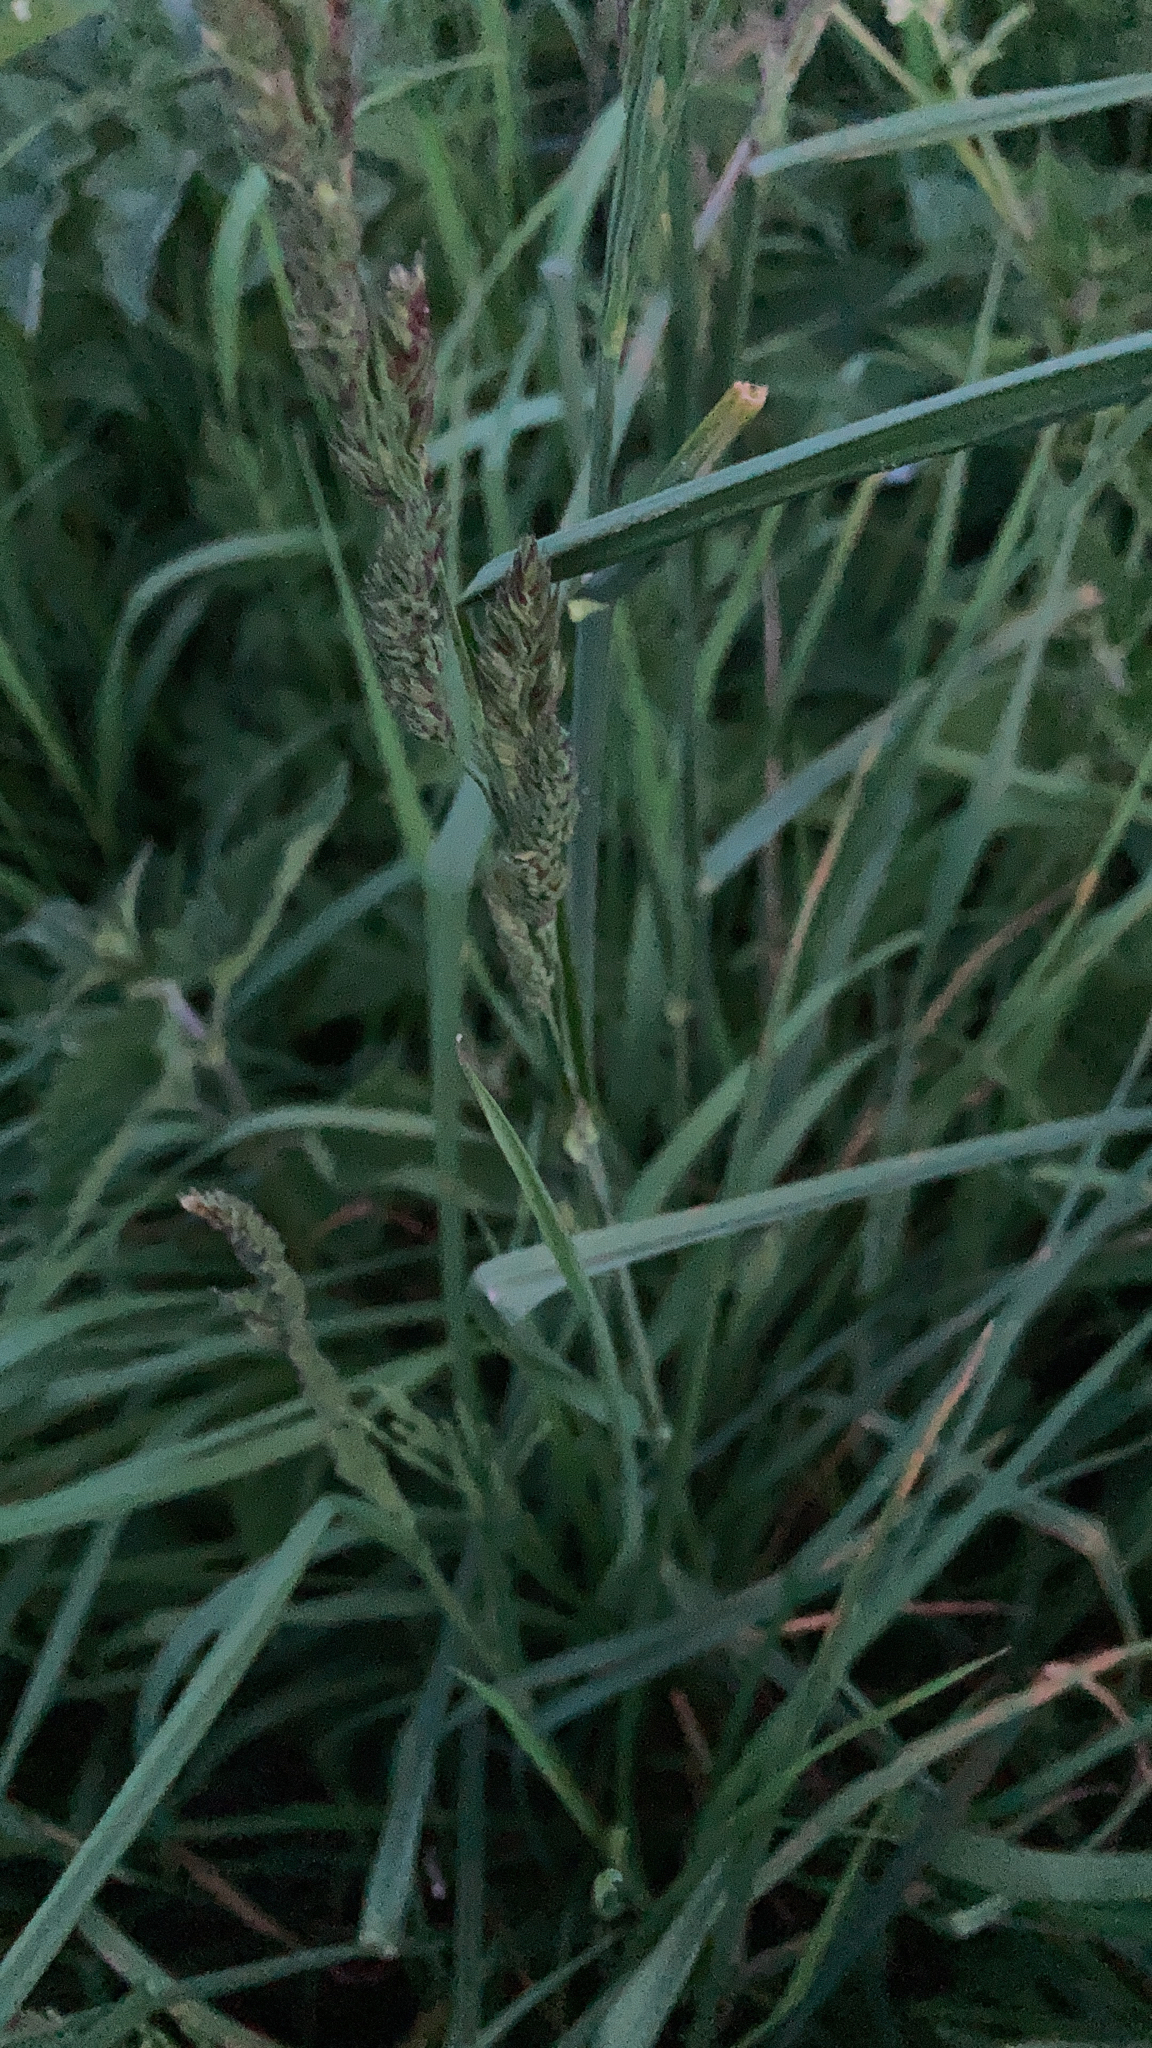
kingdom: Plantae
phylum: Tracheophyta
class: Liliopsida
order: Poales
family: Poaceae
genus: Dactylis
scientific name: Dactylis glomerata
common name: Orchardgrass
